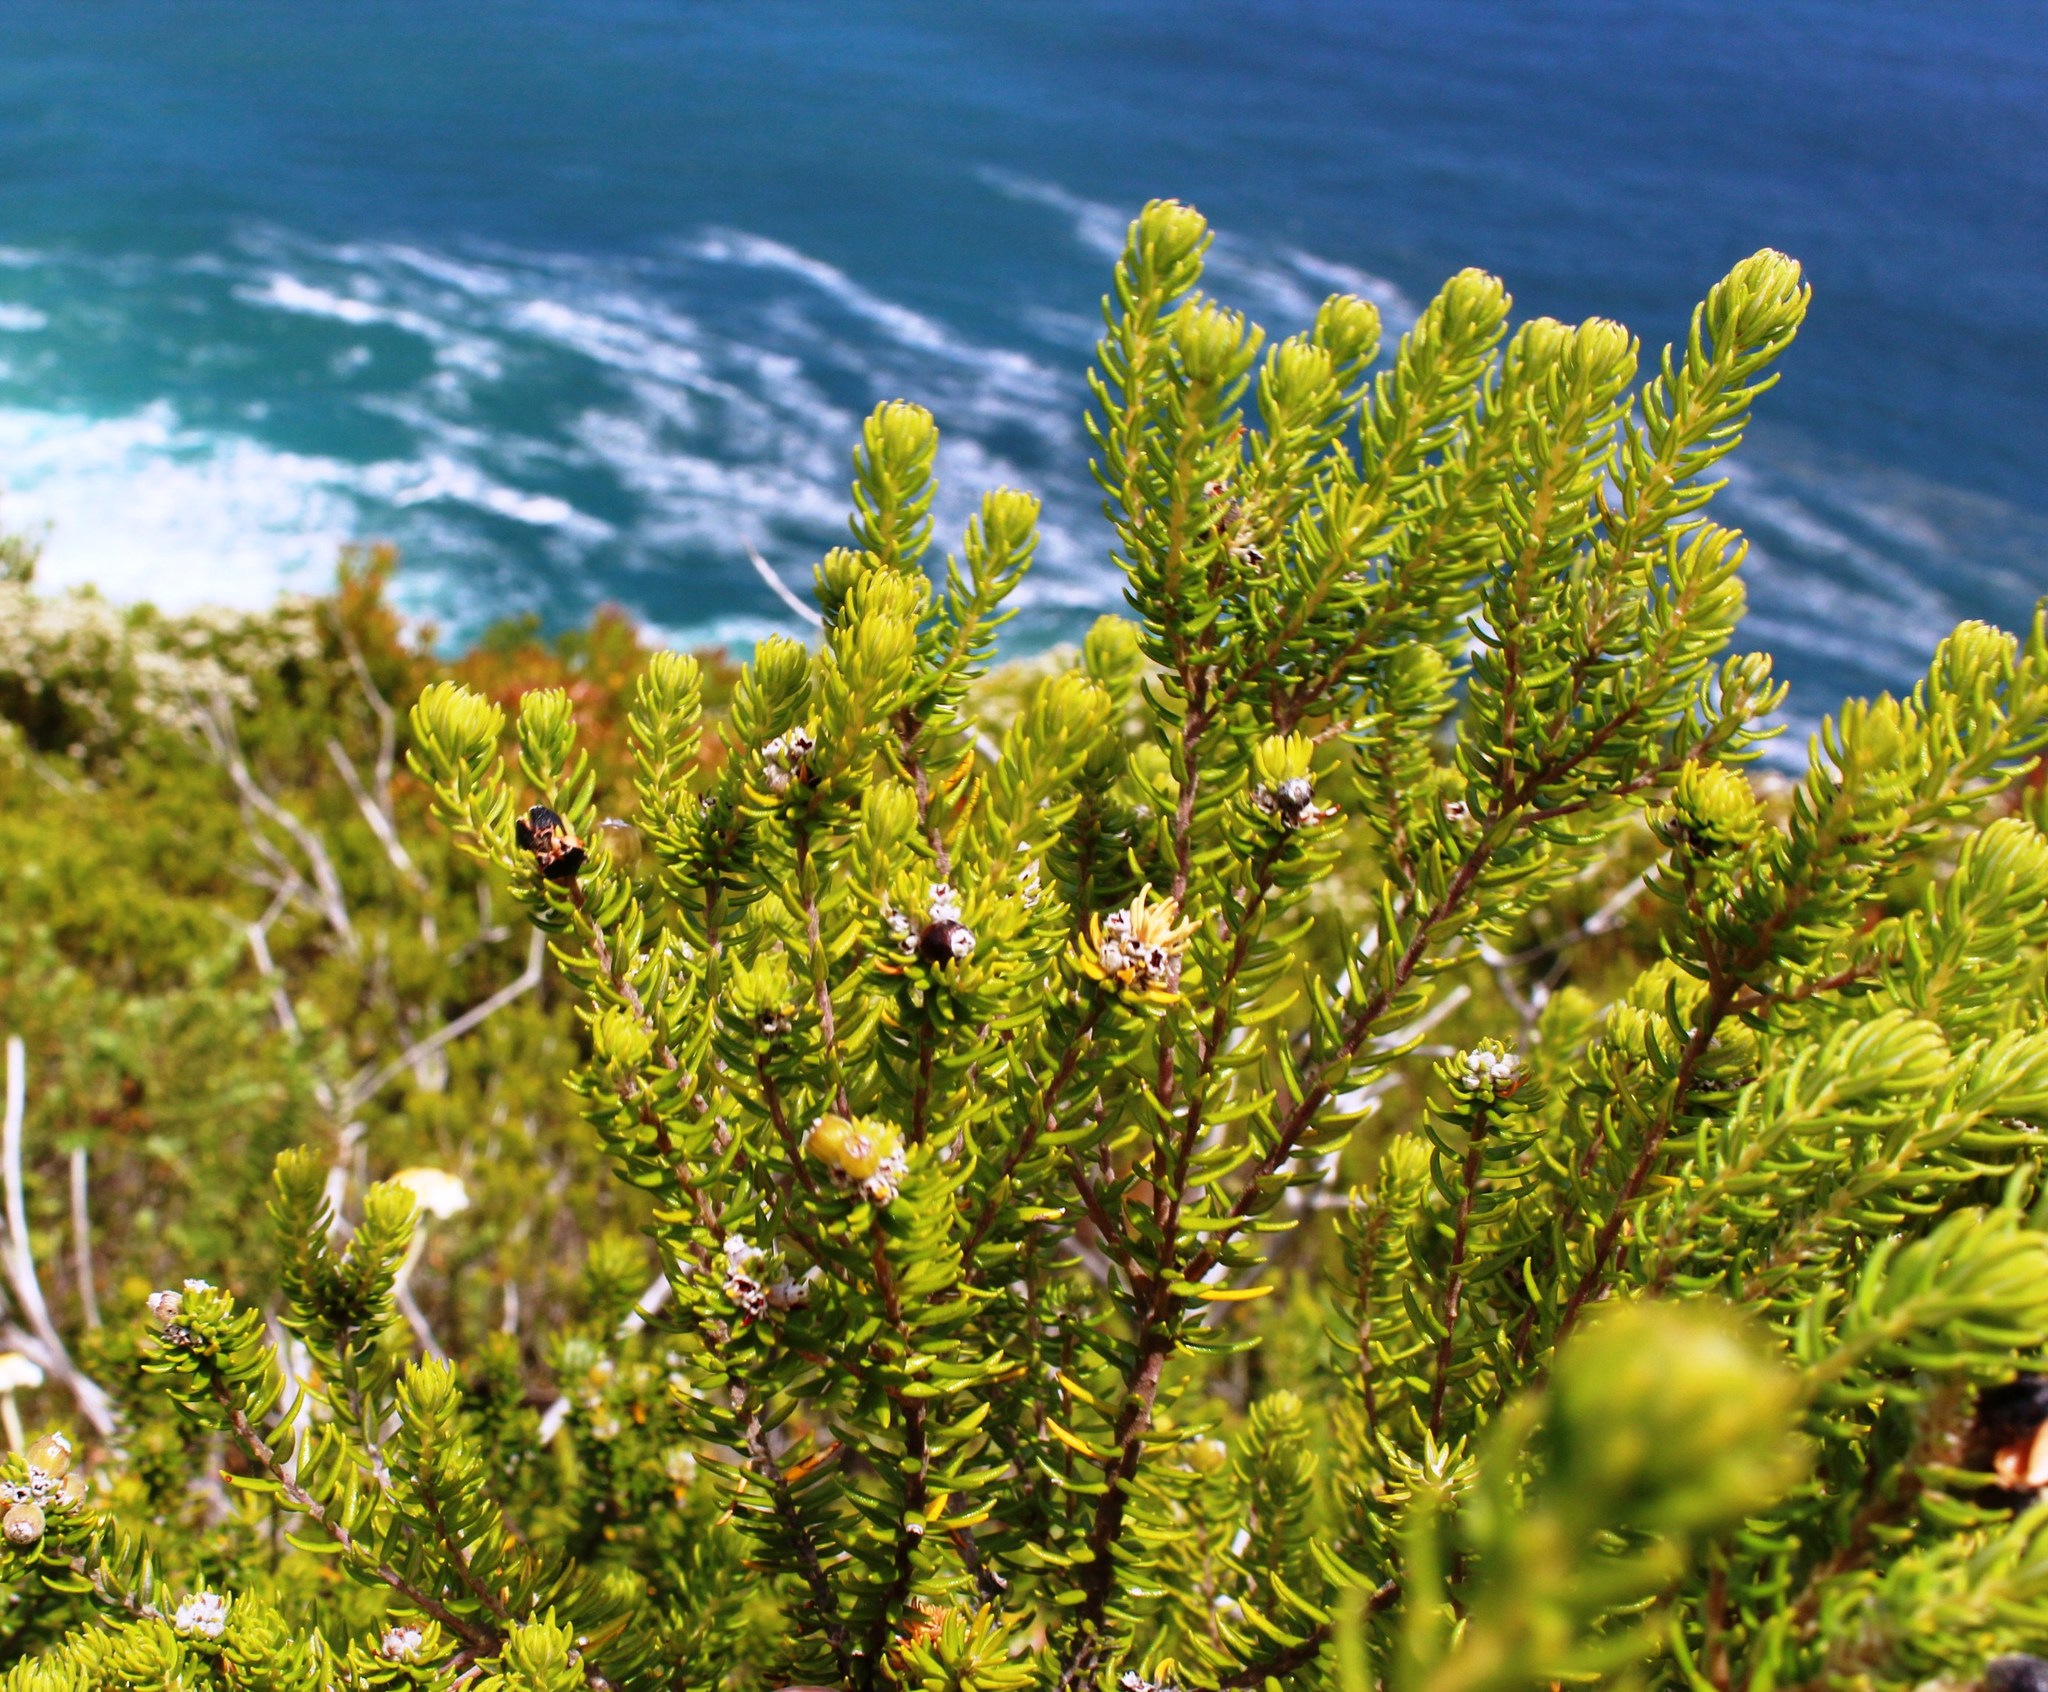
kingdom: Plantae
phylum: Tracheophyta
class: Magnoliopsida
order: Rosales
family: Rhamnaceae
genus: Phylica
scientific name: Phylica axillaris
